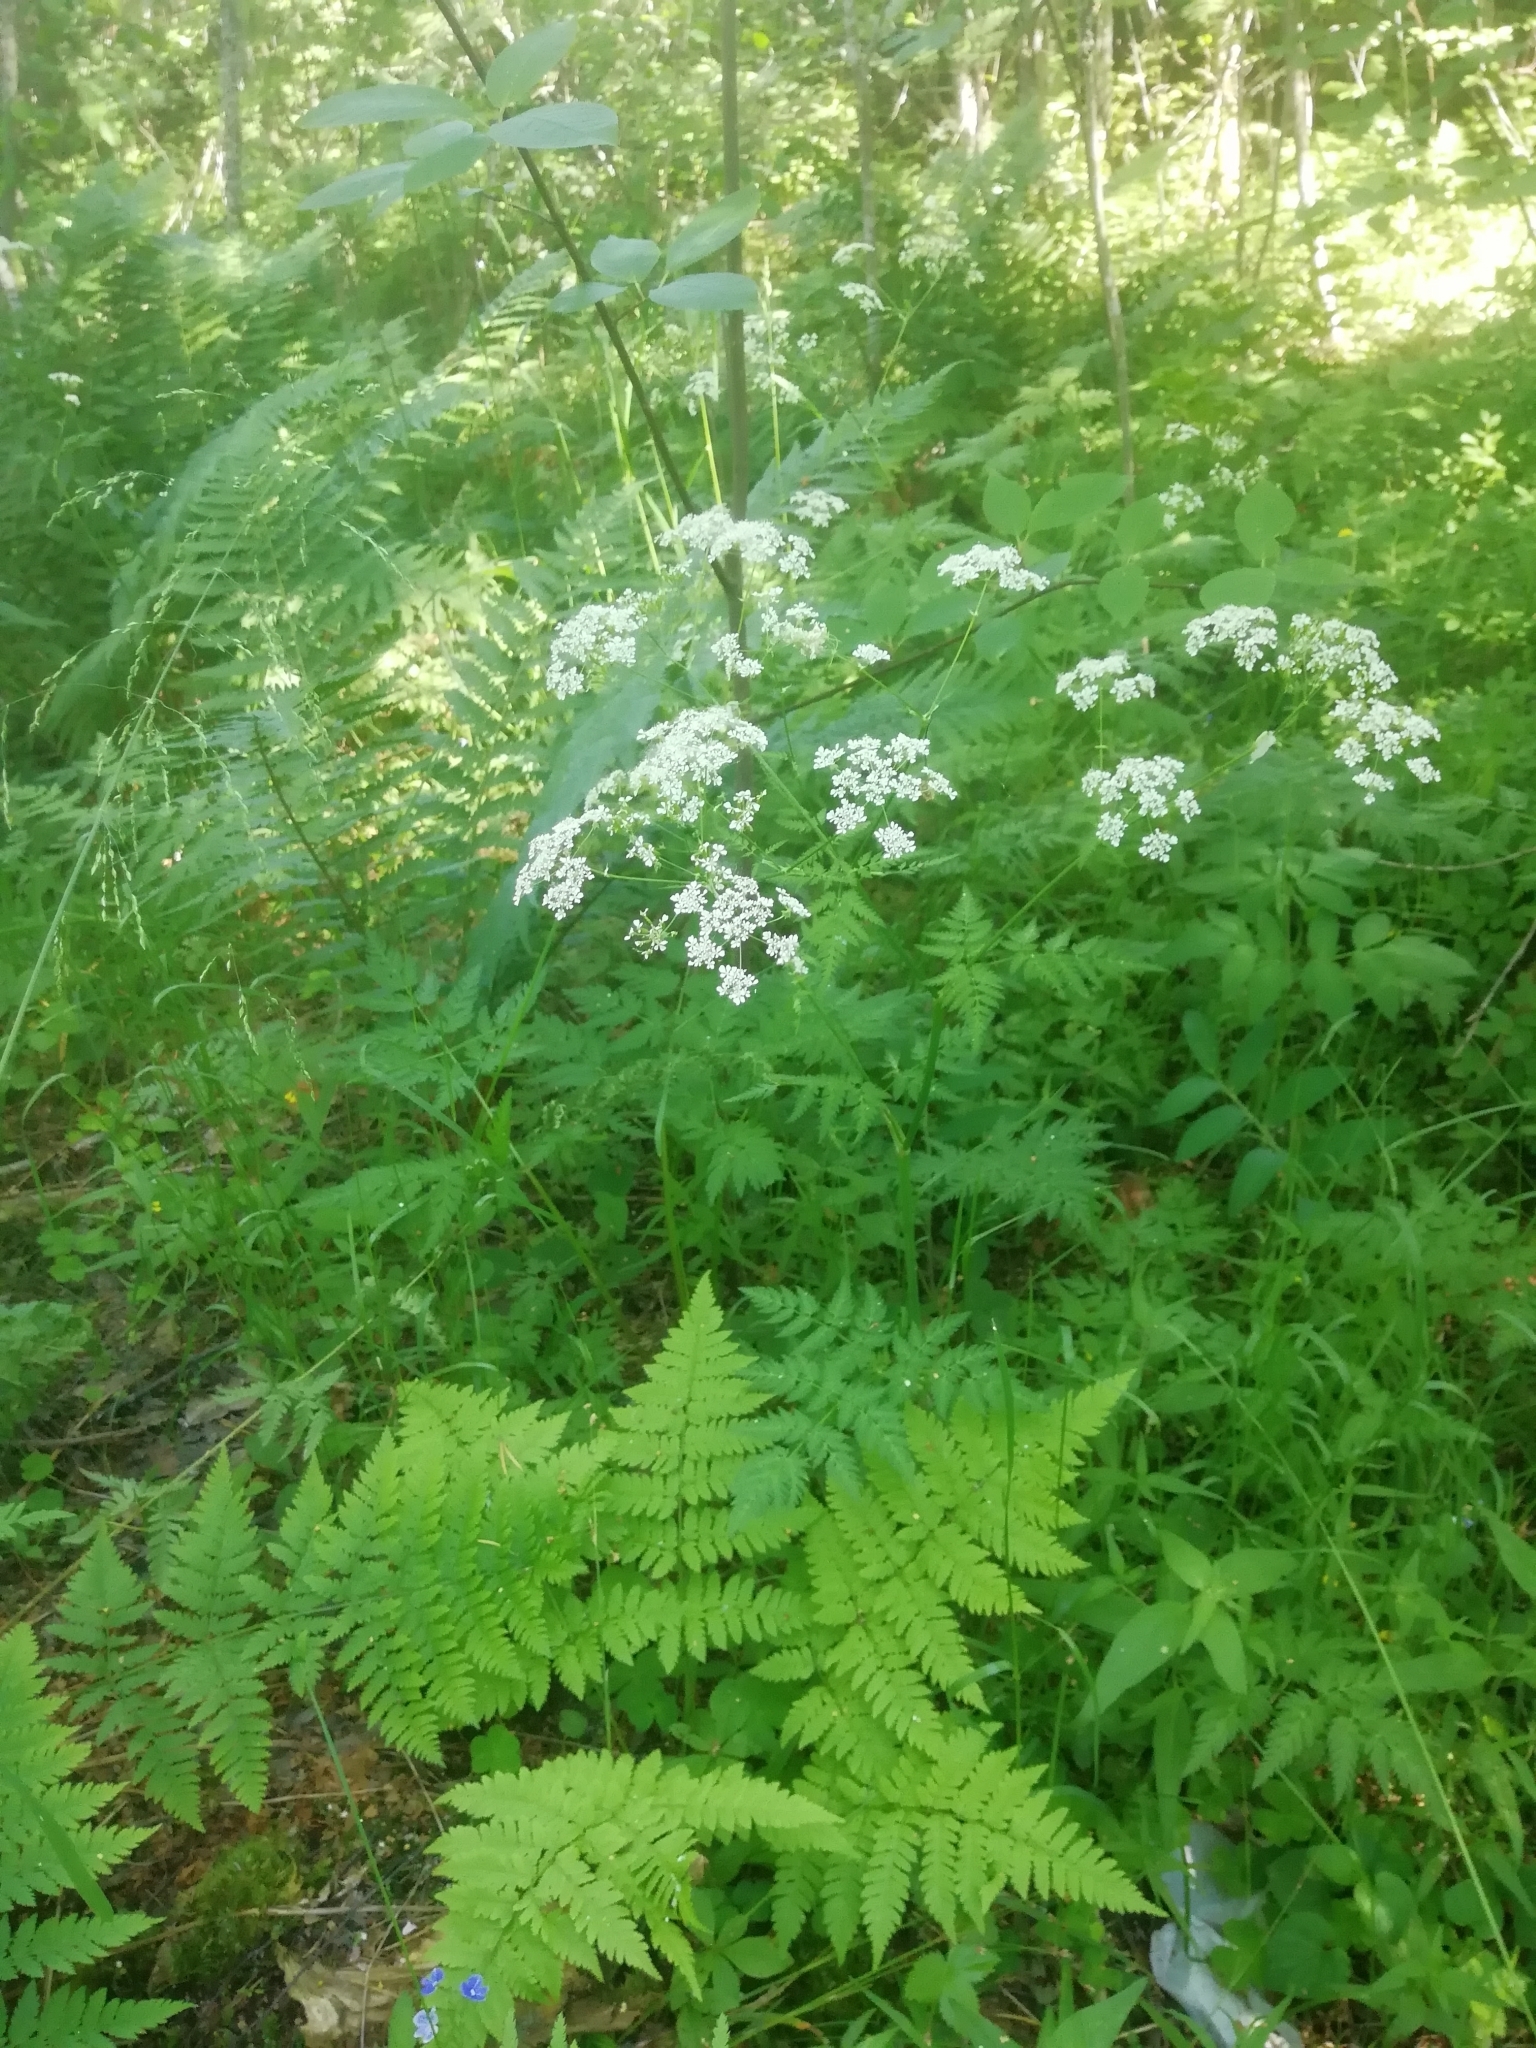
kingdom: Plantae
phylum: Tracheophyta
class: Magnoliopsida
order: Apiales
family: Apiaceae
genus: Anthriscus
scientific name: Anthriscus sylvestris
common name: Cow parsley
